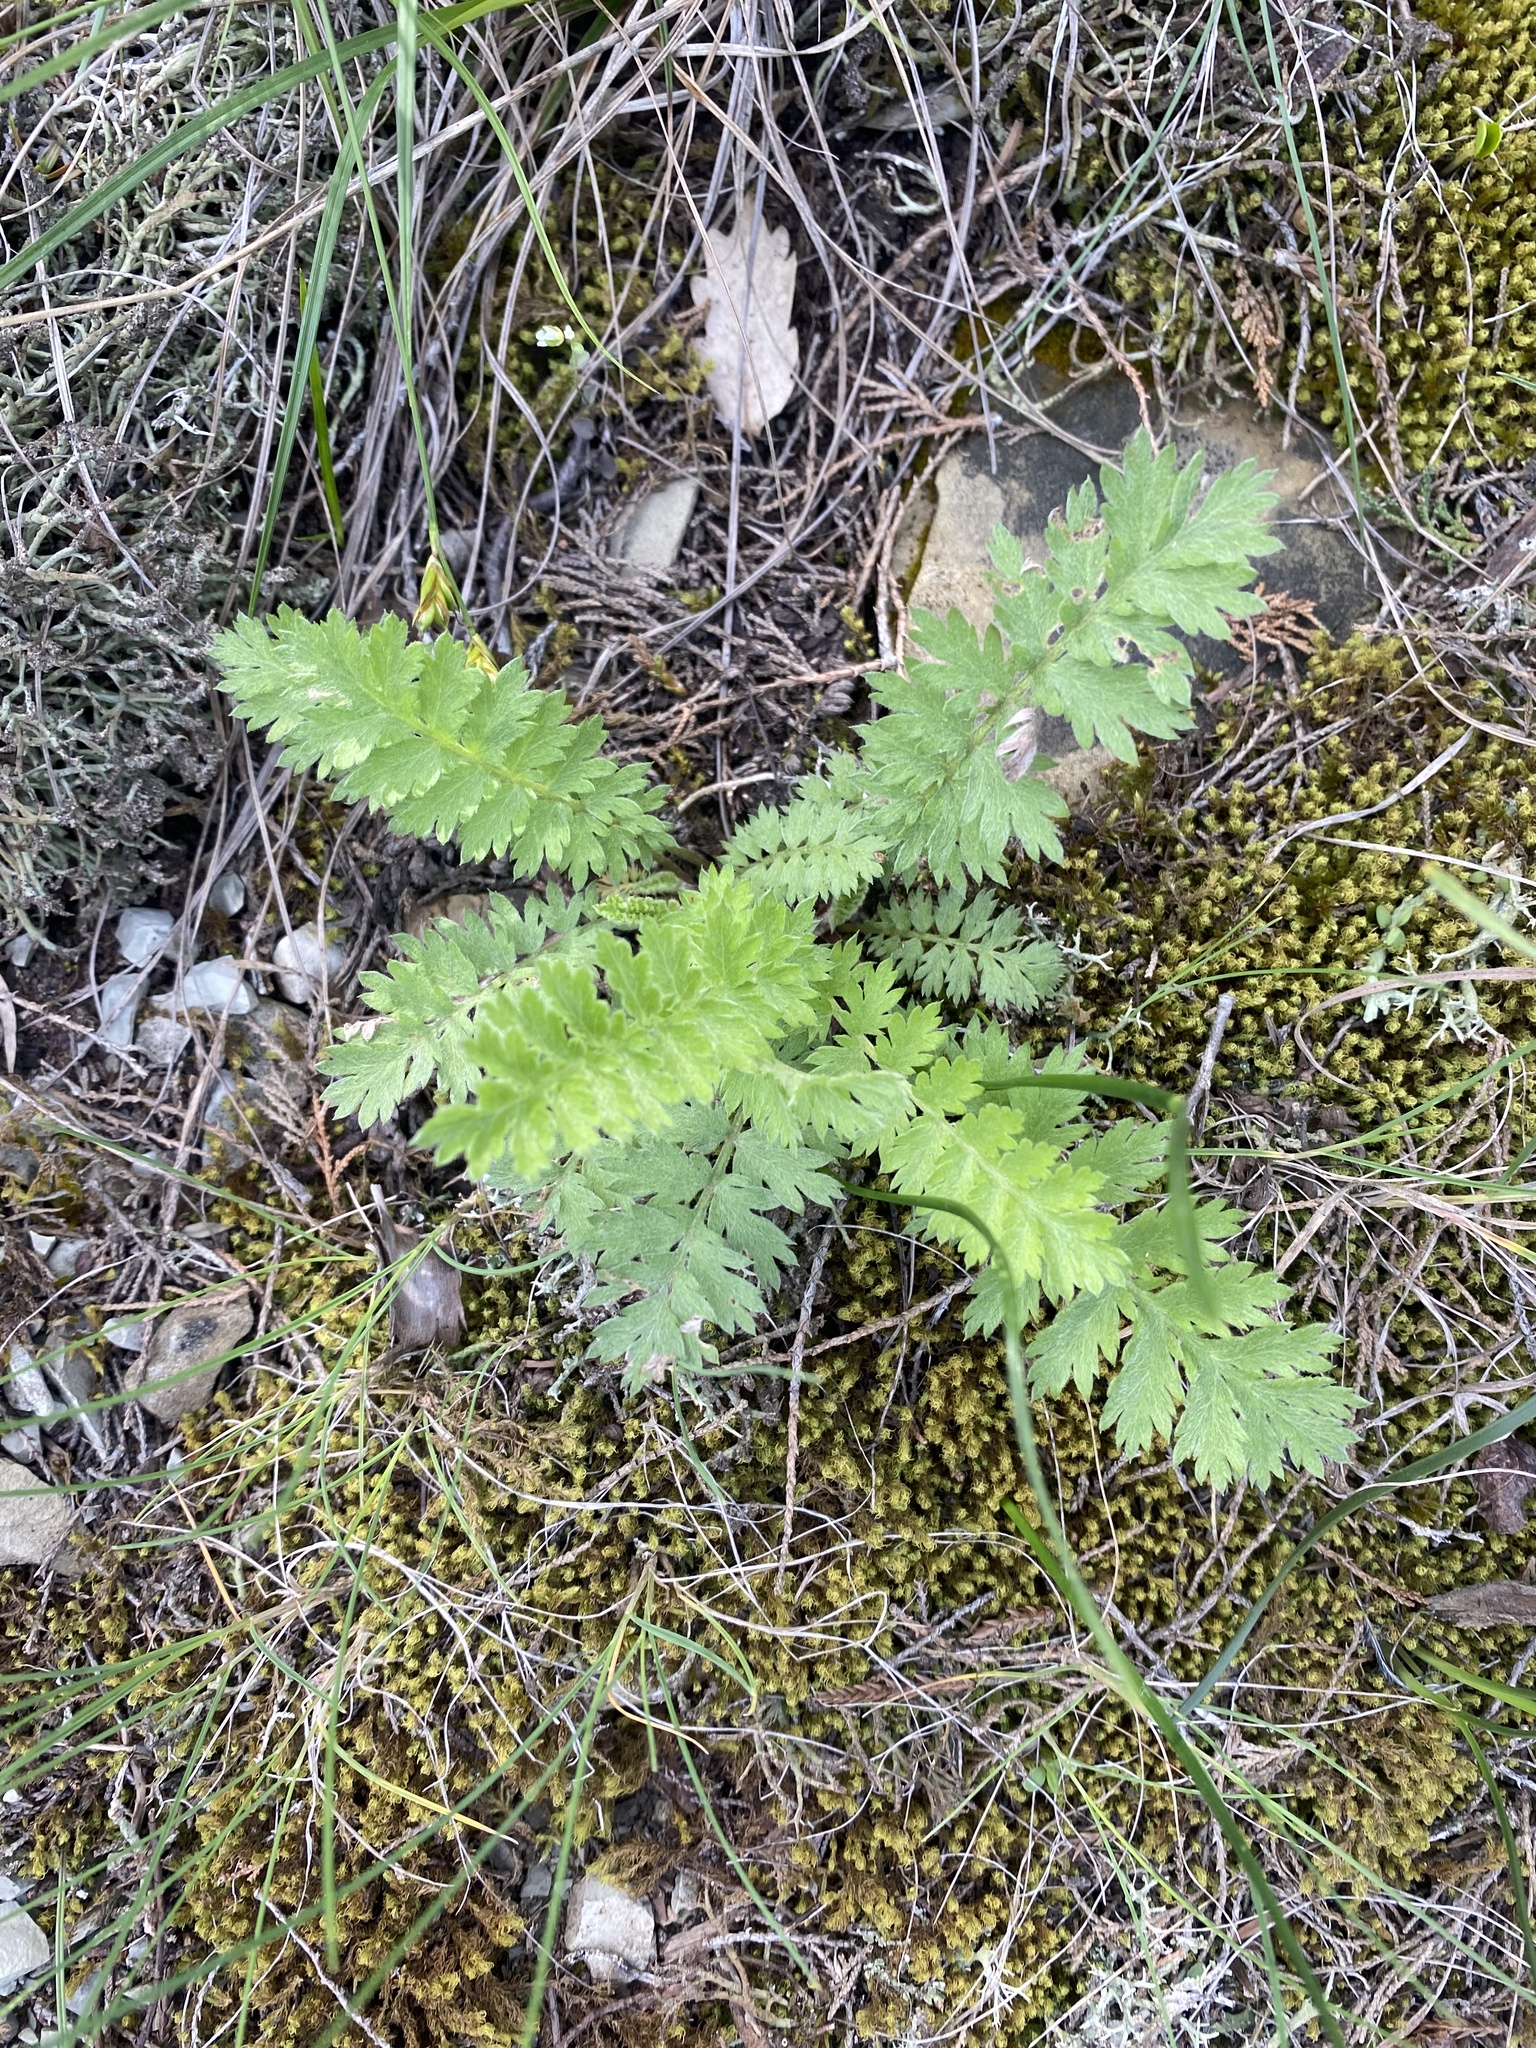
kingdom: Plantae
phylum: Tracheophyta
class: Magnoliopsida
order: Asterales
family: Asteraceae
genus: Tanacetum
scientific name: Tanacetum poteriifolium
